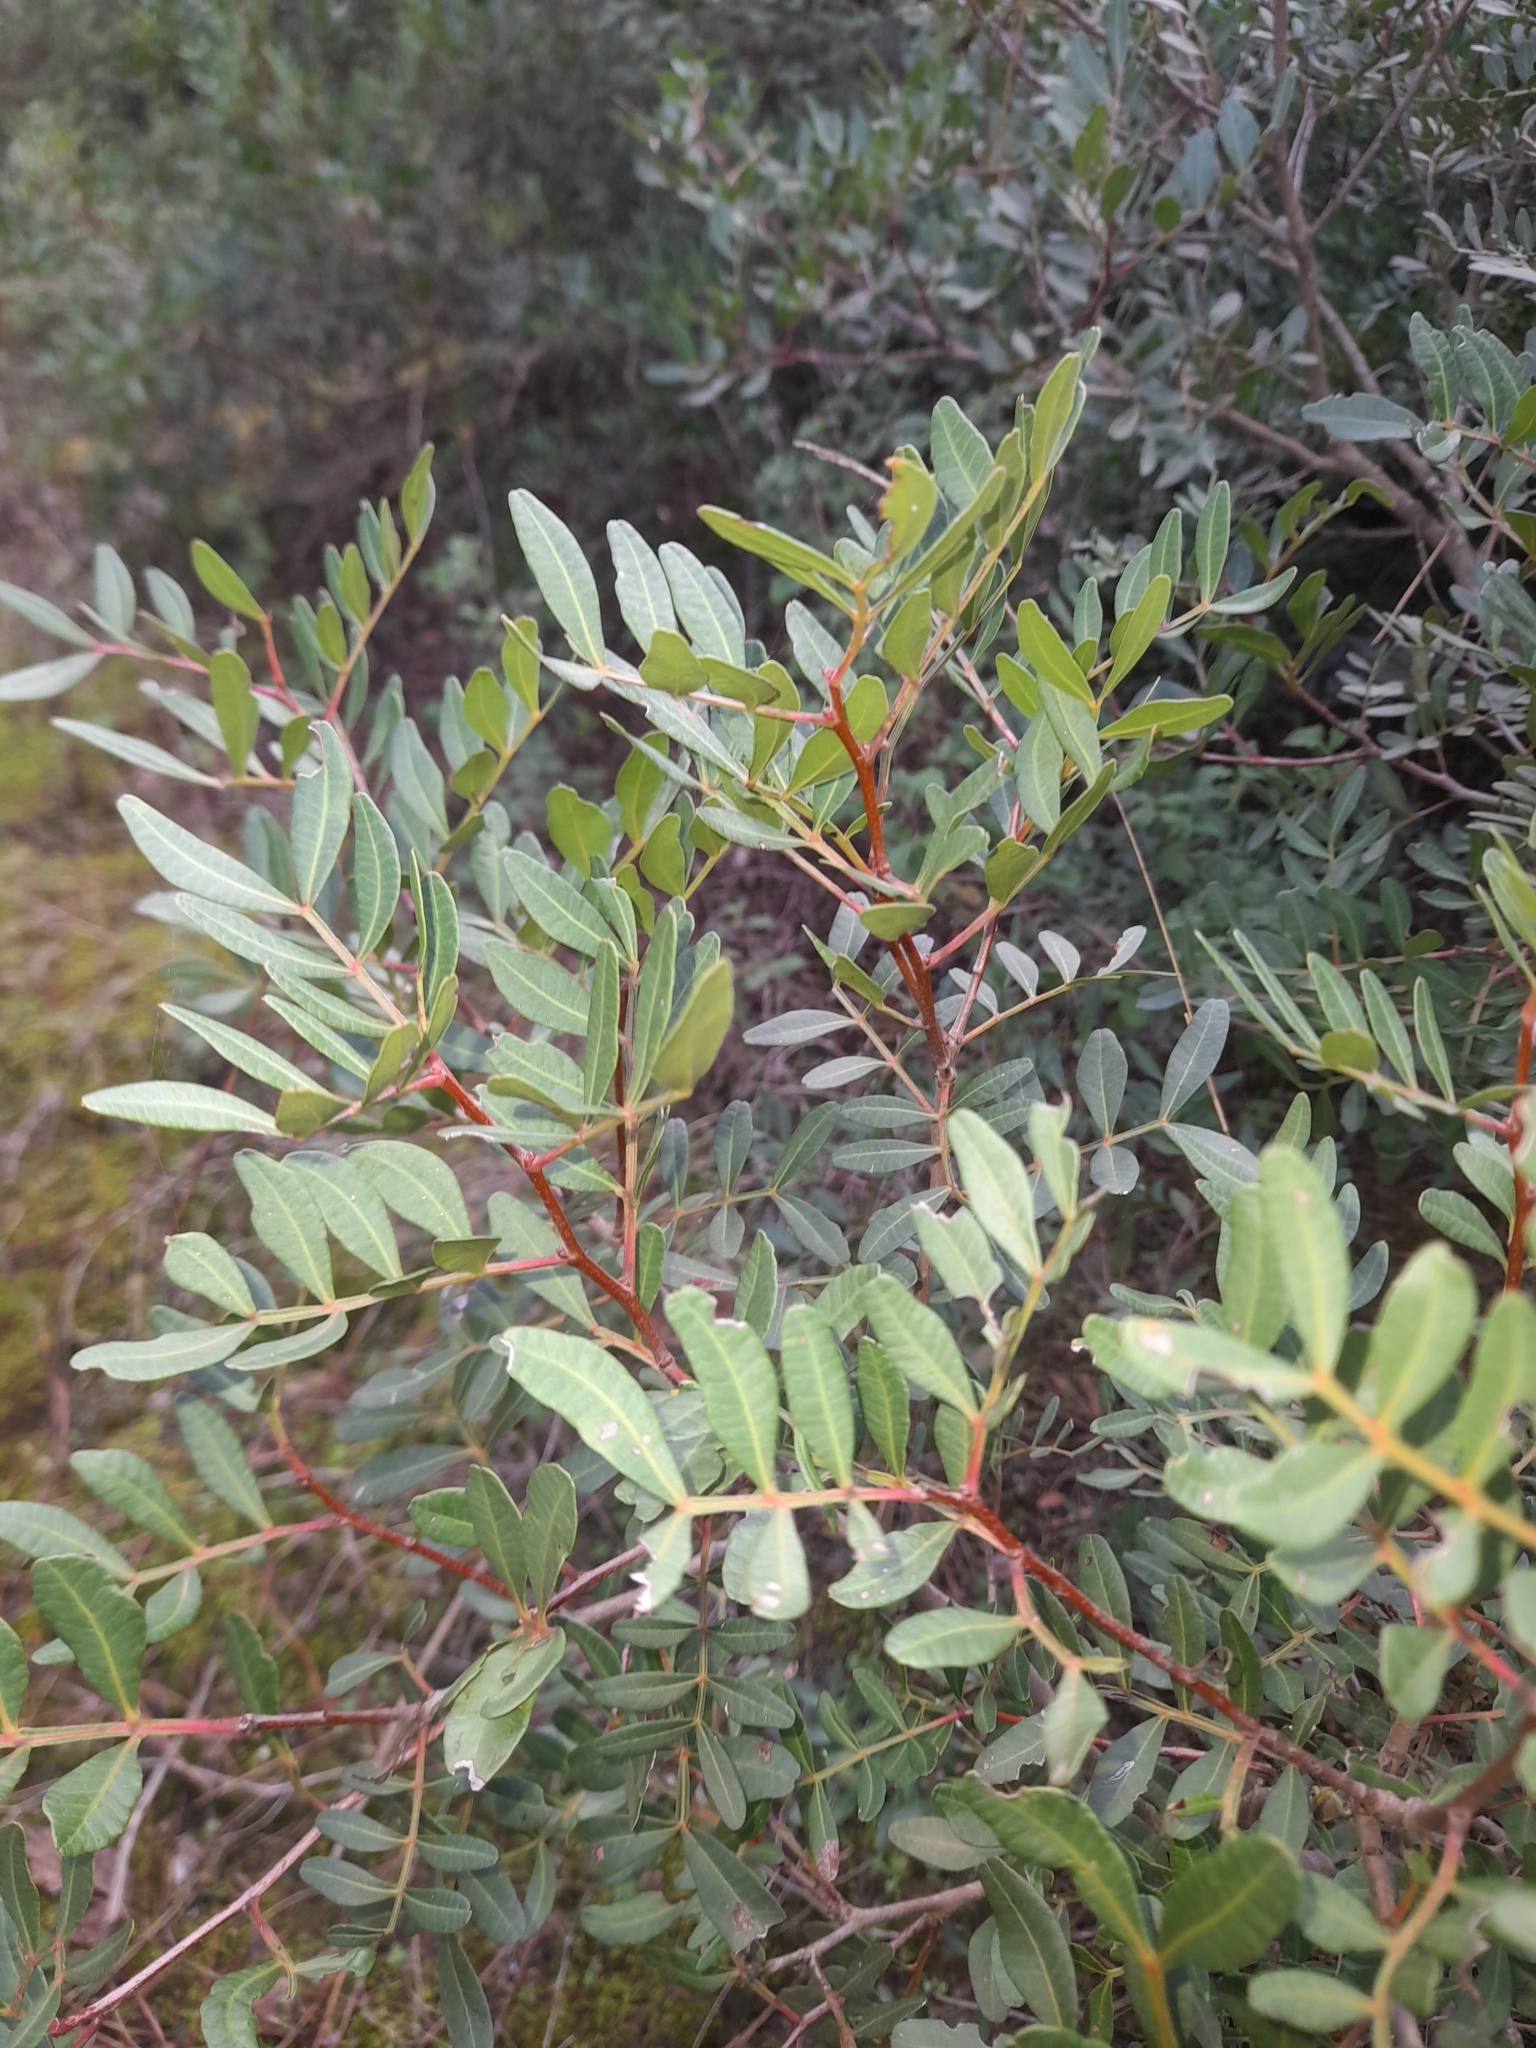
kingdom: Plantae
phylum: Tracheophyta
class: Magnoliopsida
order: Sapindales
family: Anacardiaceae
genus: Pistacia
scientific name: Pistacia lentiscus
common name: Lentisk
